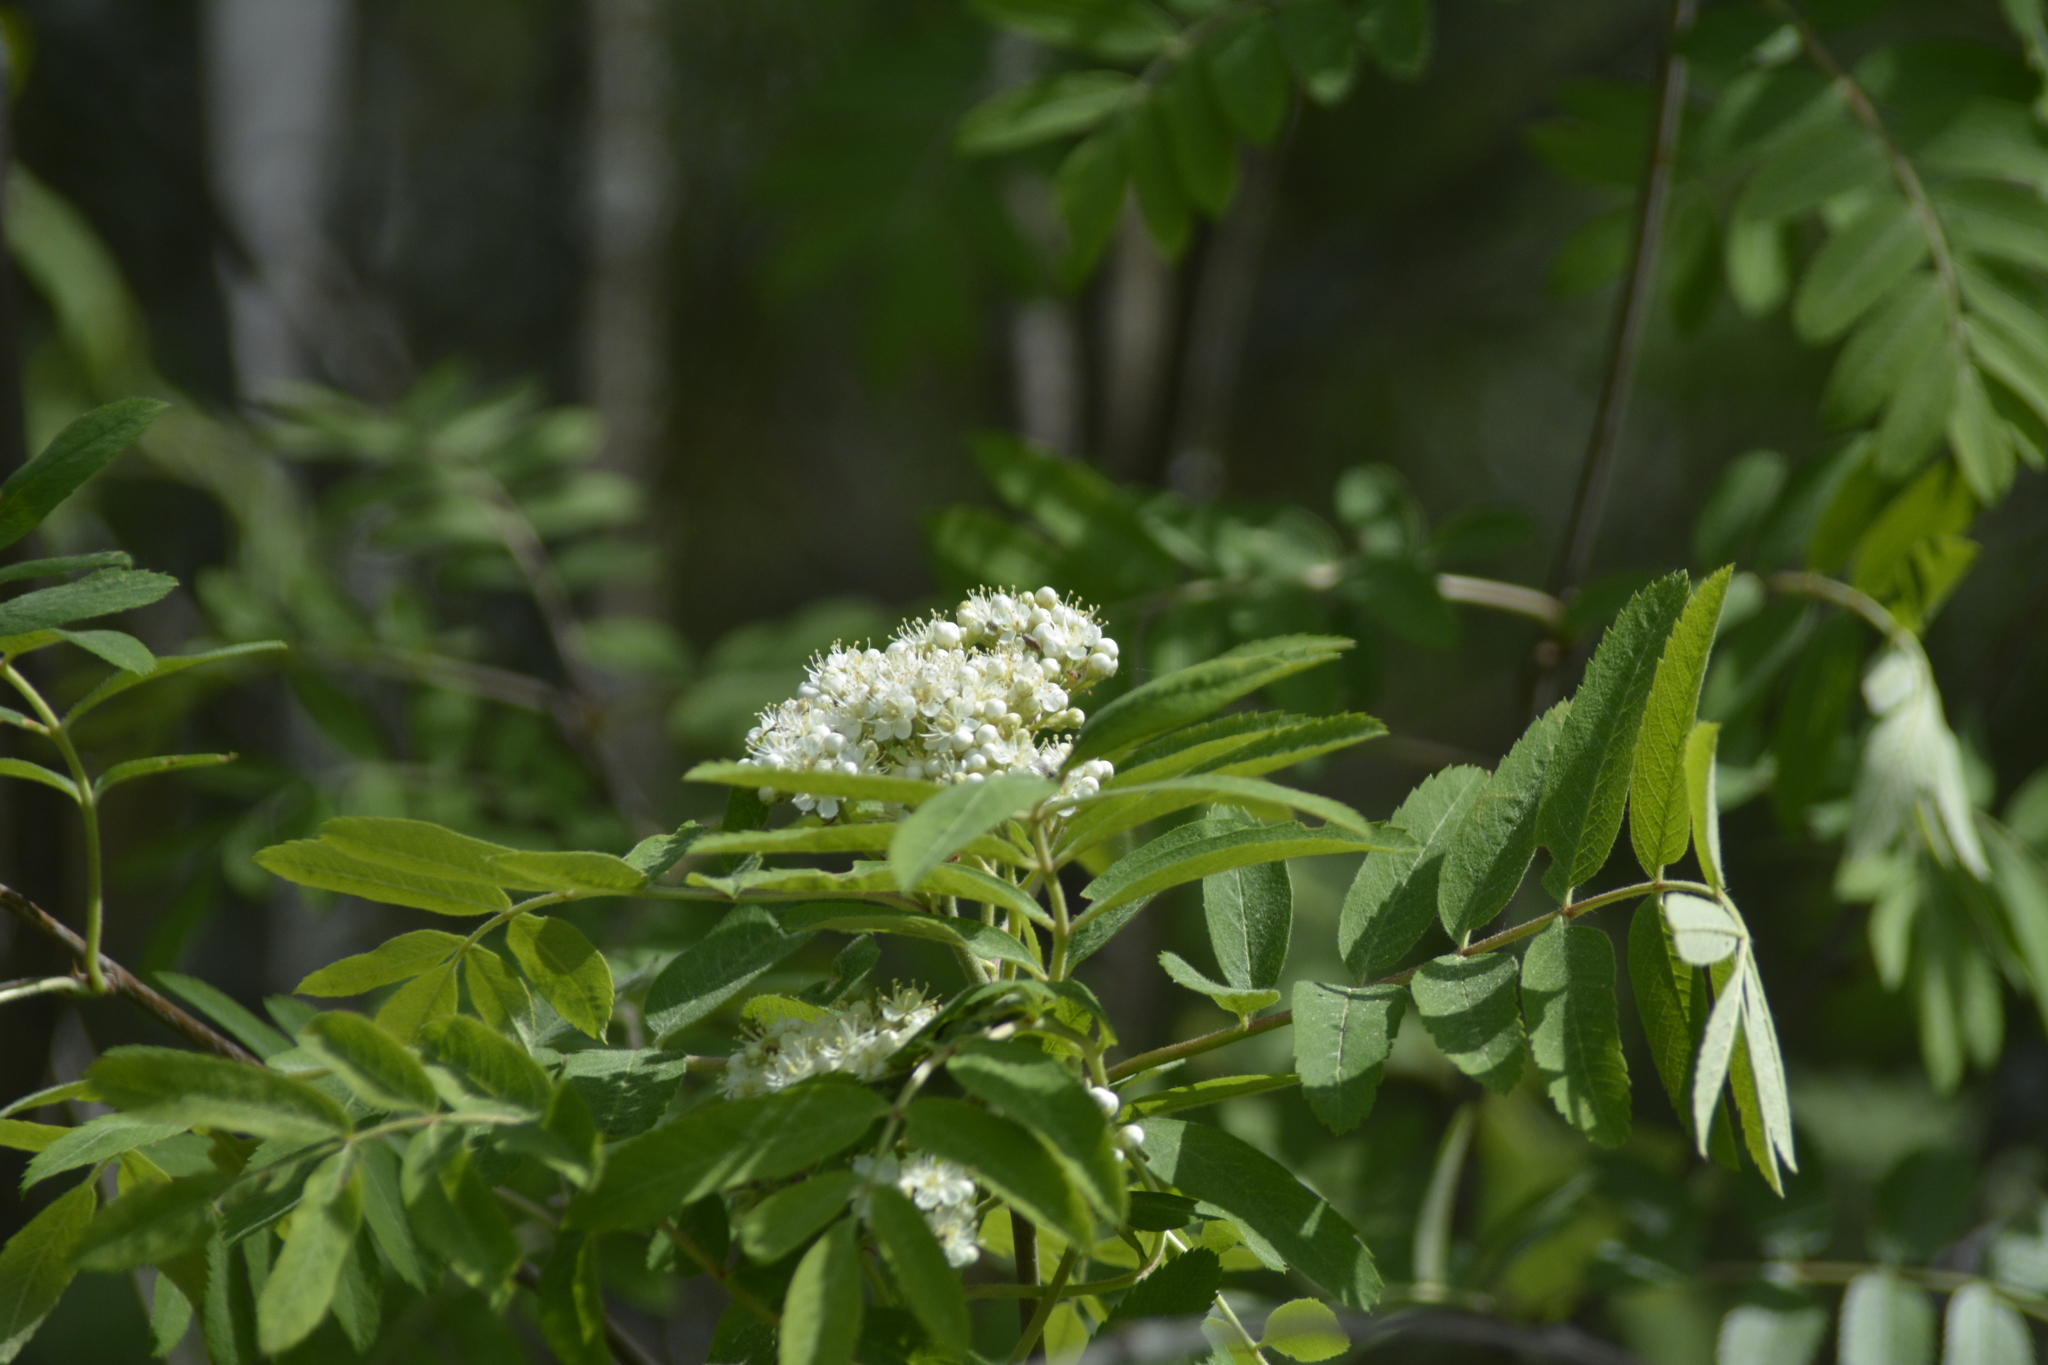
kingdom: Plantae
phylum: Tracheophyta
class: Magnoliopsida
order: Rosales
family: Rosaceae
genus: Sorbus
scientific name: Sorbus aucuparia
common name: Rowan
